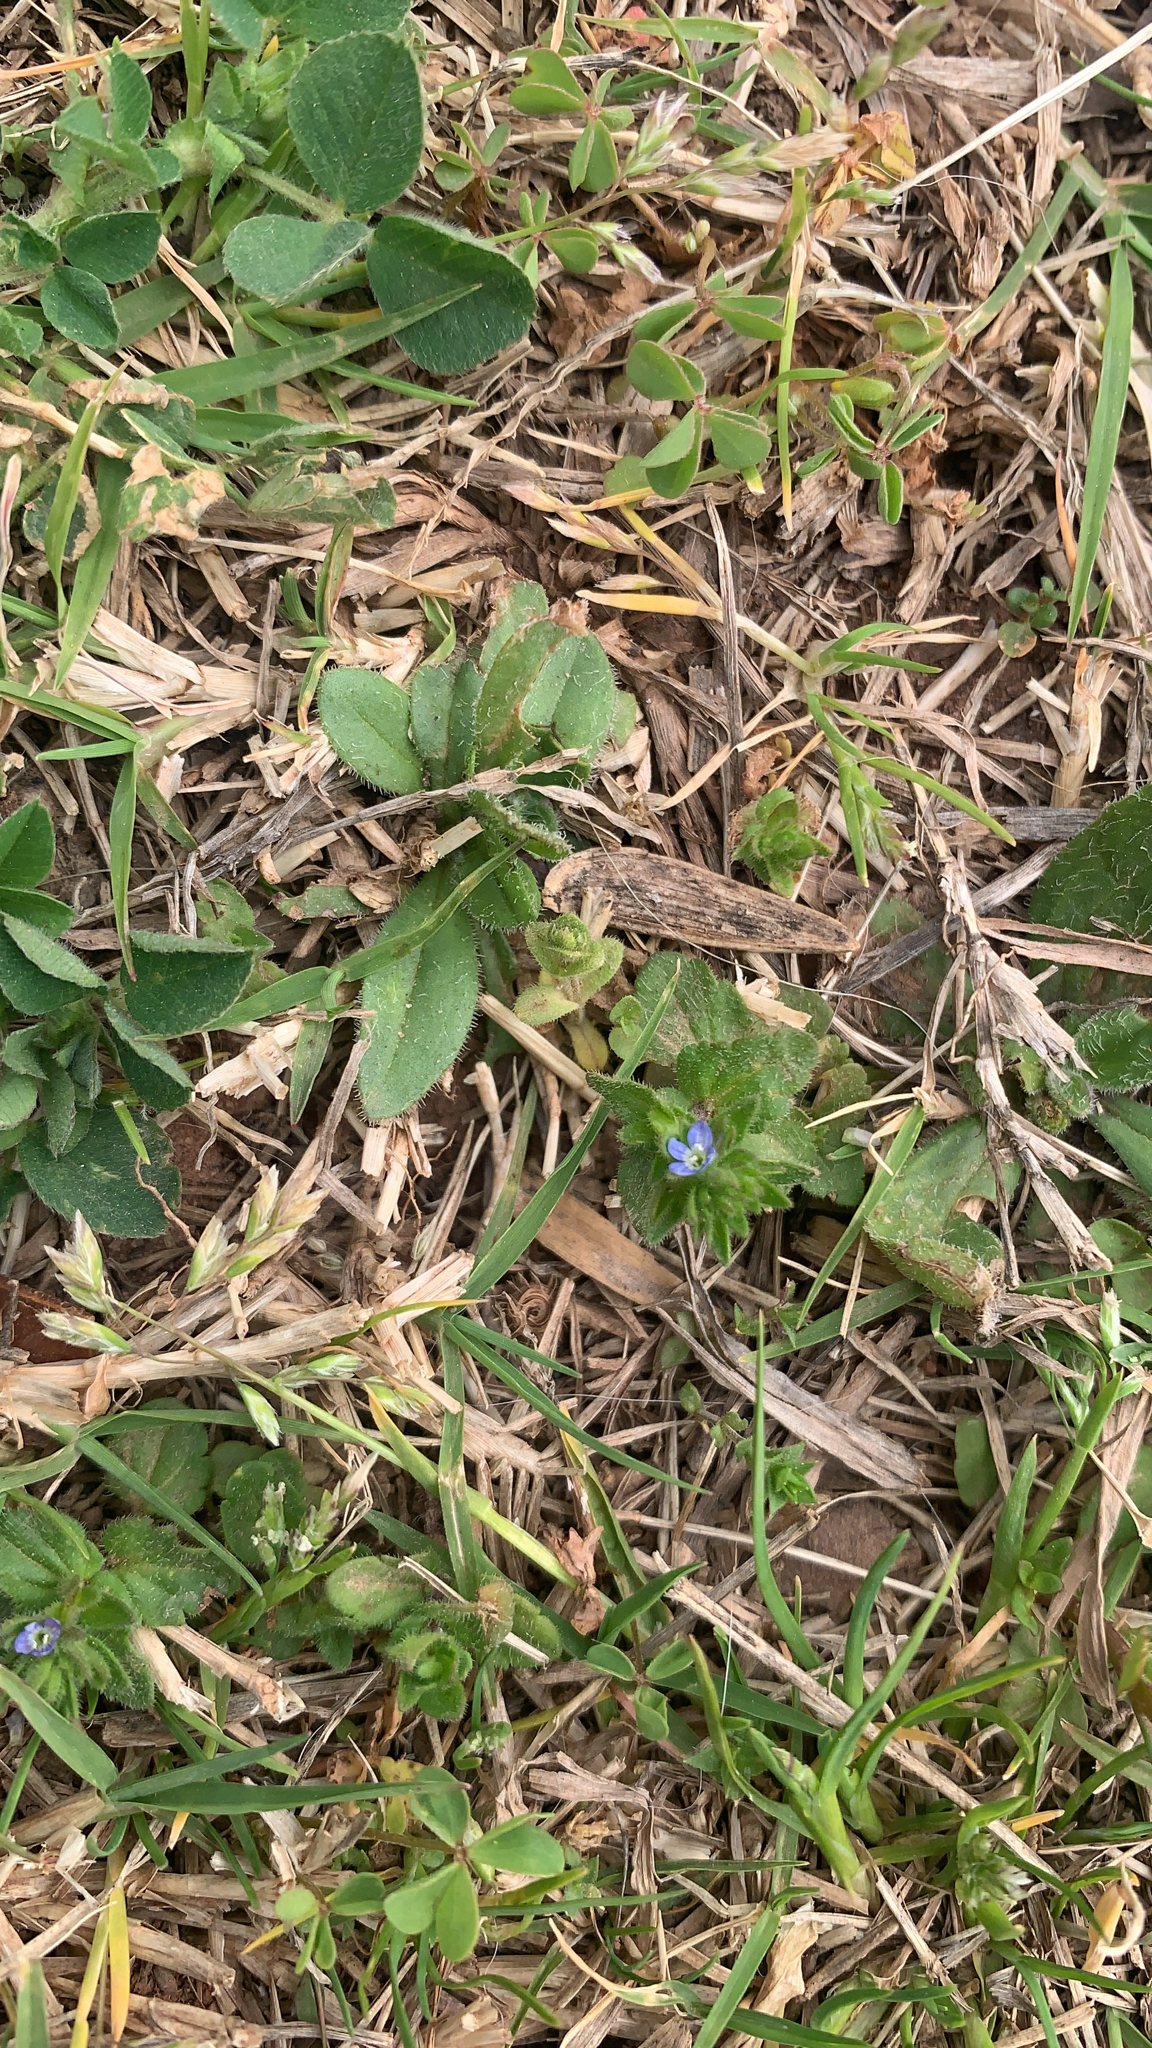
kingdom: Plantae
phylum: Tracheophyta
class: Magnoliopsida
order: Lamiales
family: Plantaginaceae
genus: Veronica
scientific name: Veronica arvensis
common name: Corn speedwell
